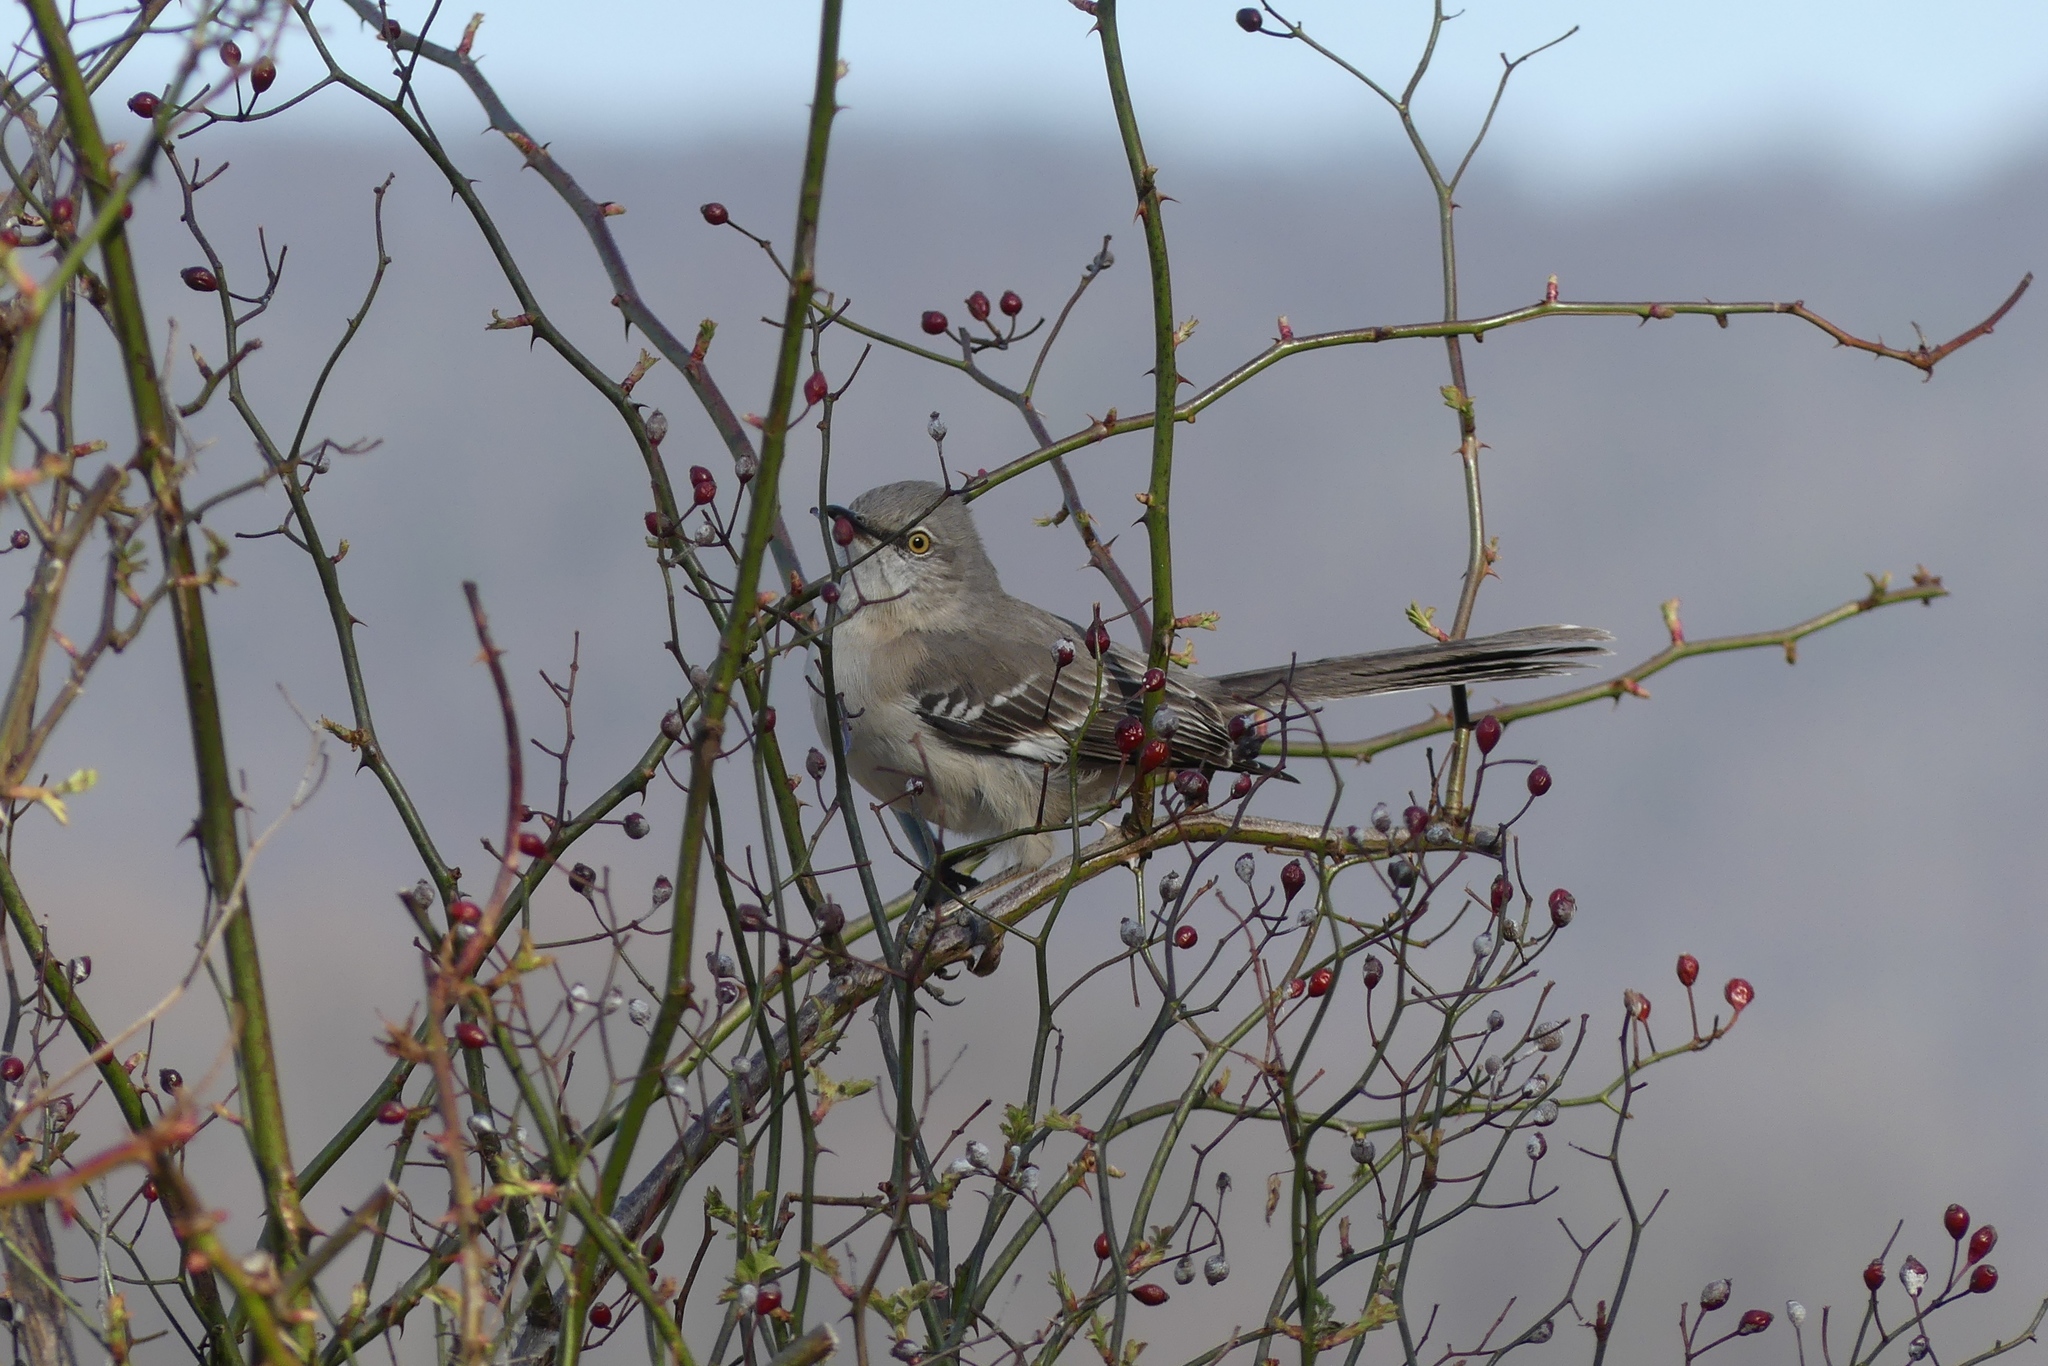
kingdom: Animalia
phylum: Chordata
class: Aves
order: Passeriformes
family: Mimidae
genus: Mimus
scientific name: Mimus polyglottos
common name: Northern mockingbird
